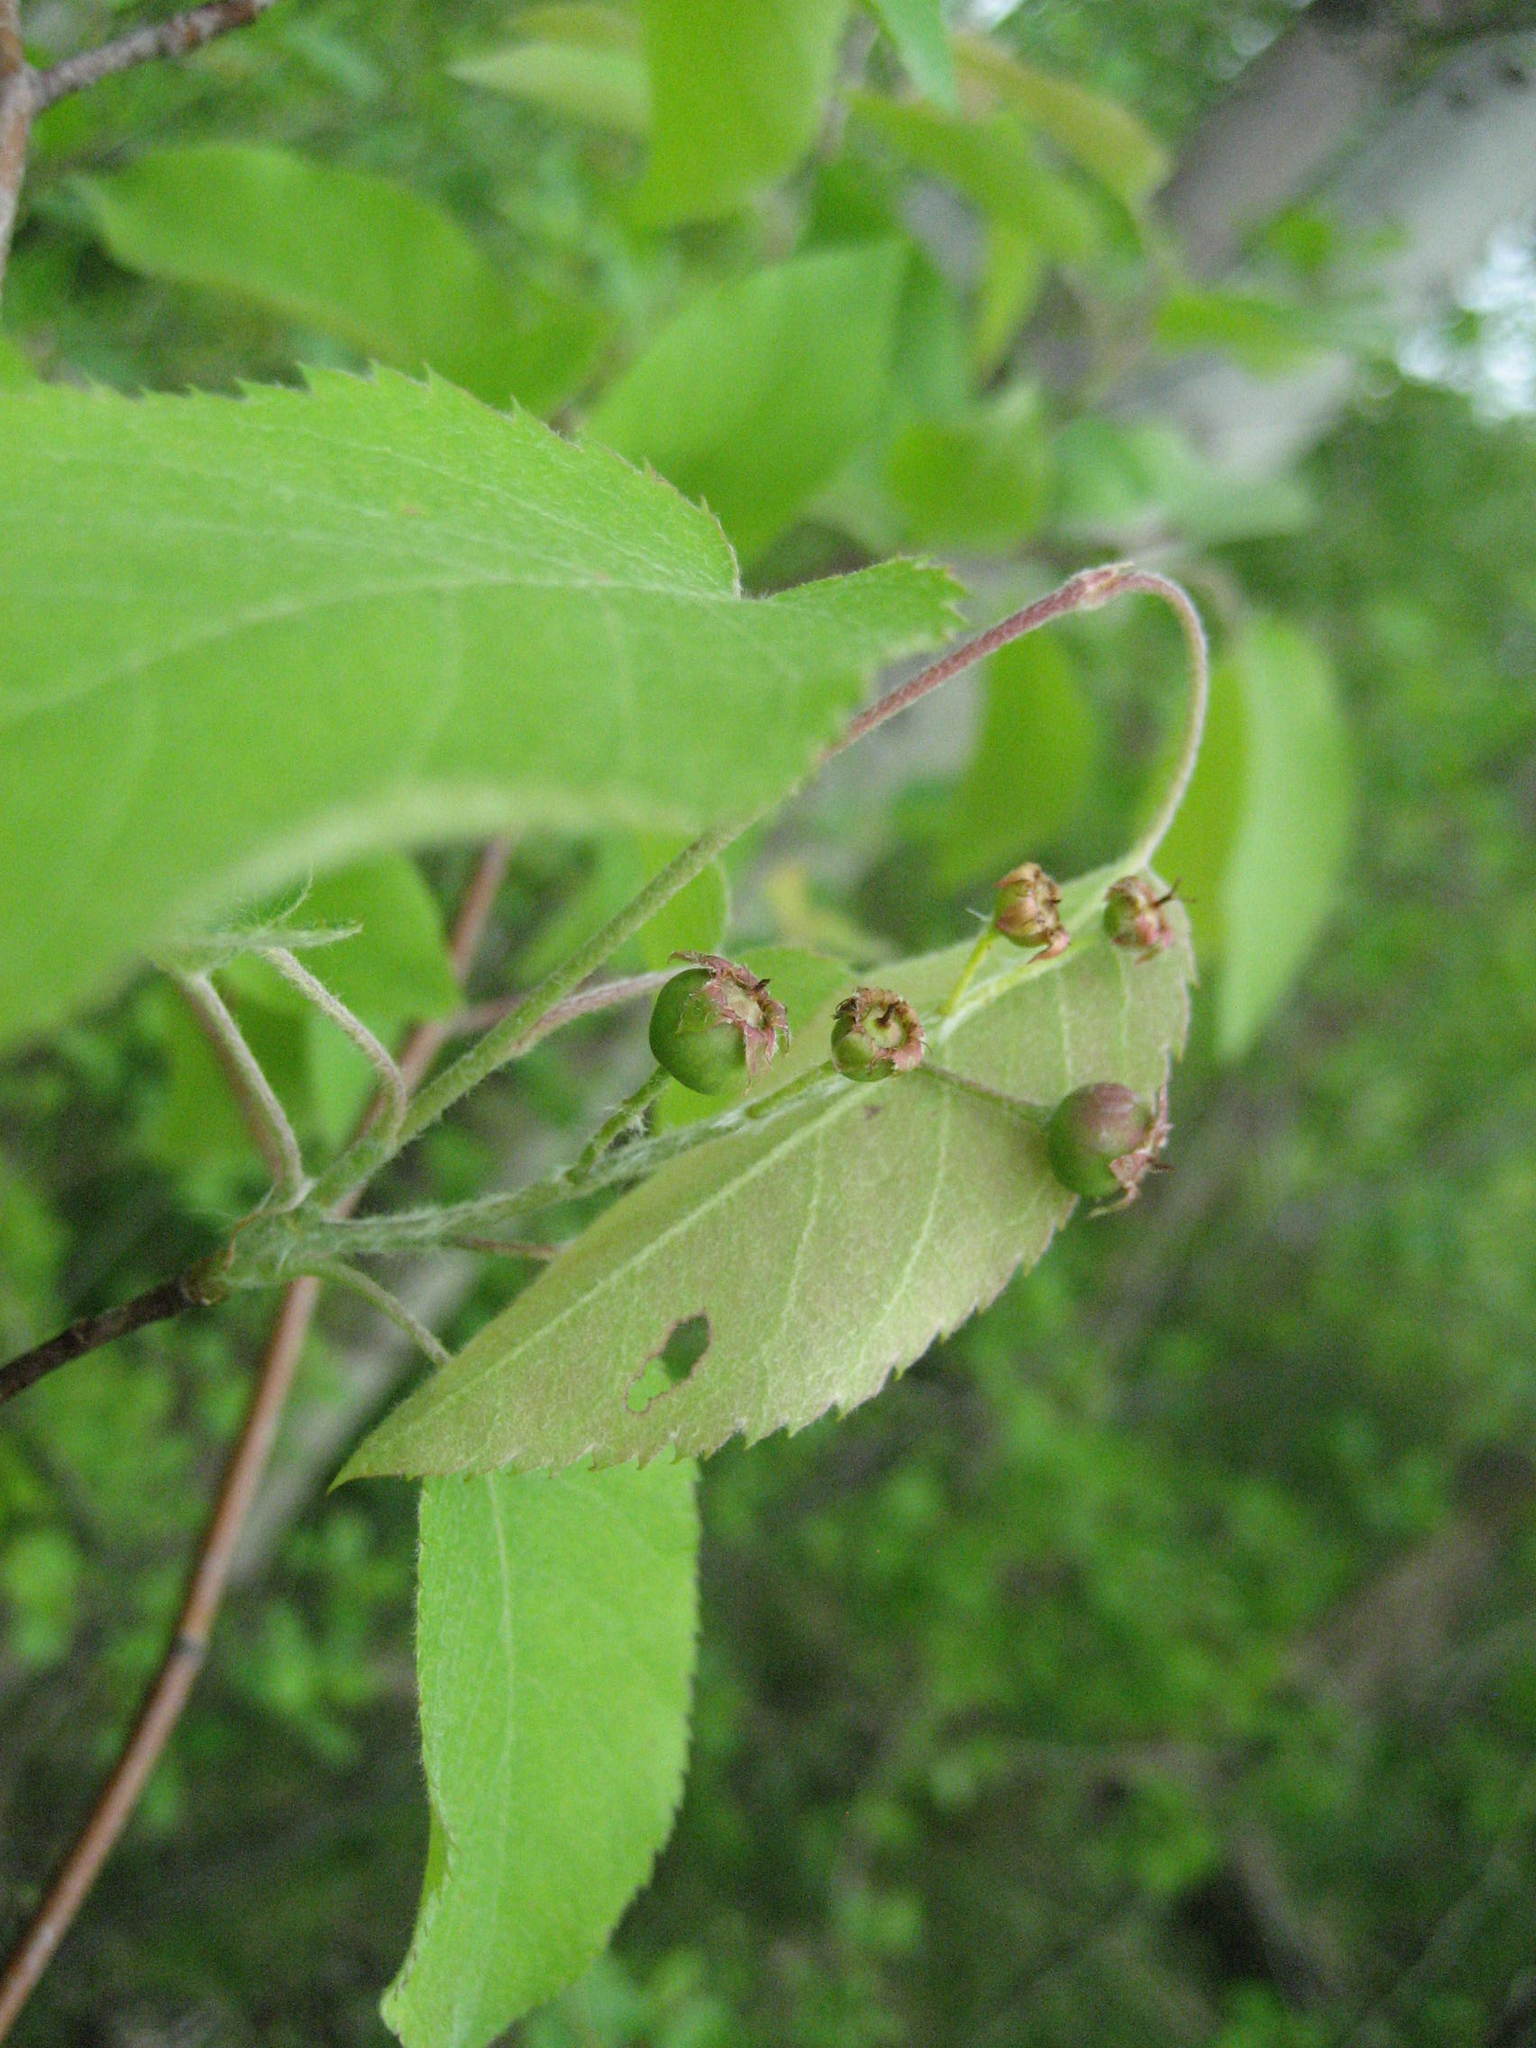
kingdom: Plantae
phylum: Tracheophyta
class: Magnoliopsida
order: Rosales
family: Rosaceae
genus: Amelanchier
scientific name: Amelanchier arborea
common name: Downy serviceberry
